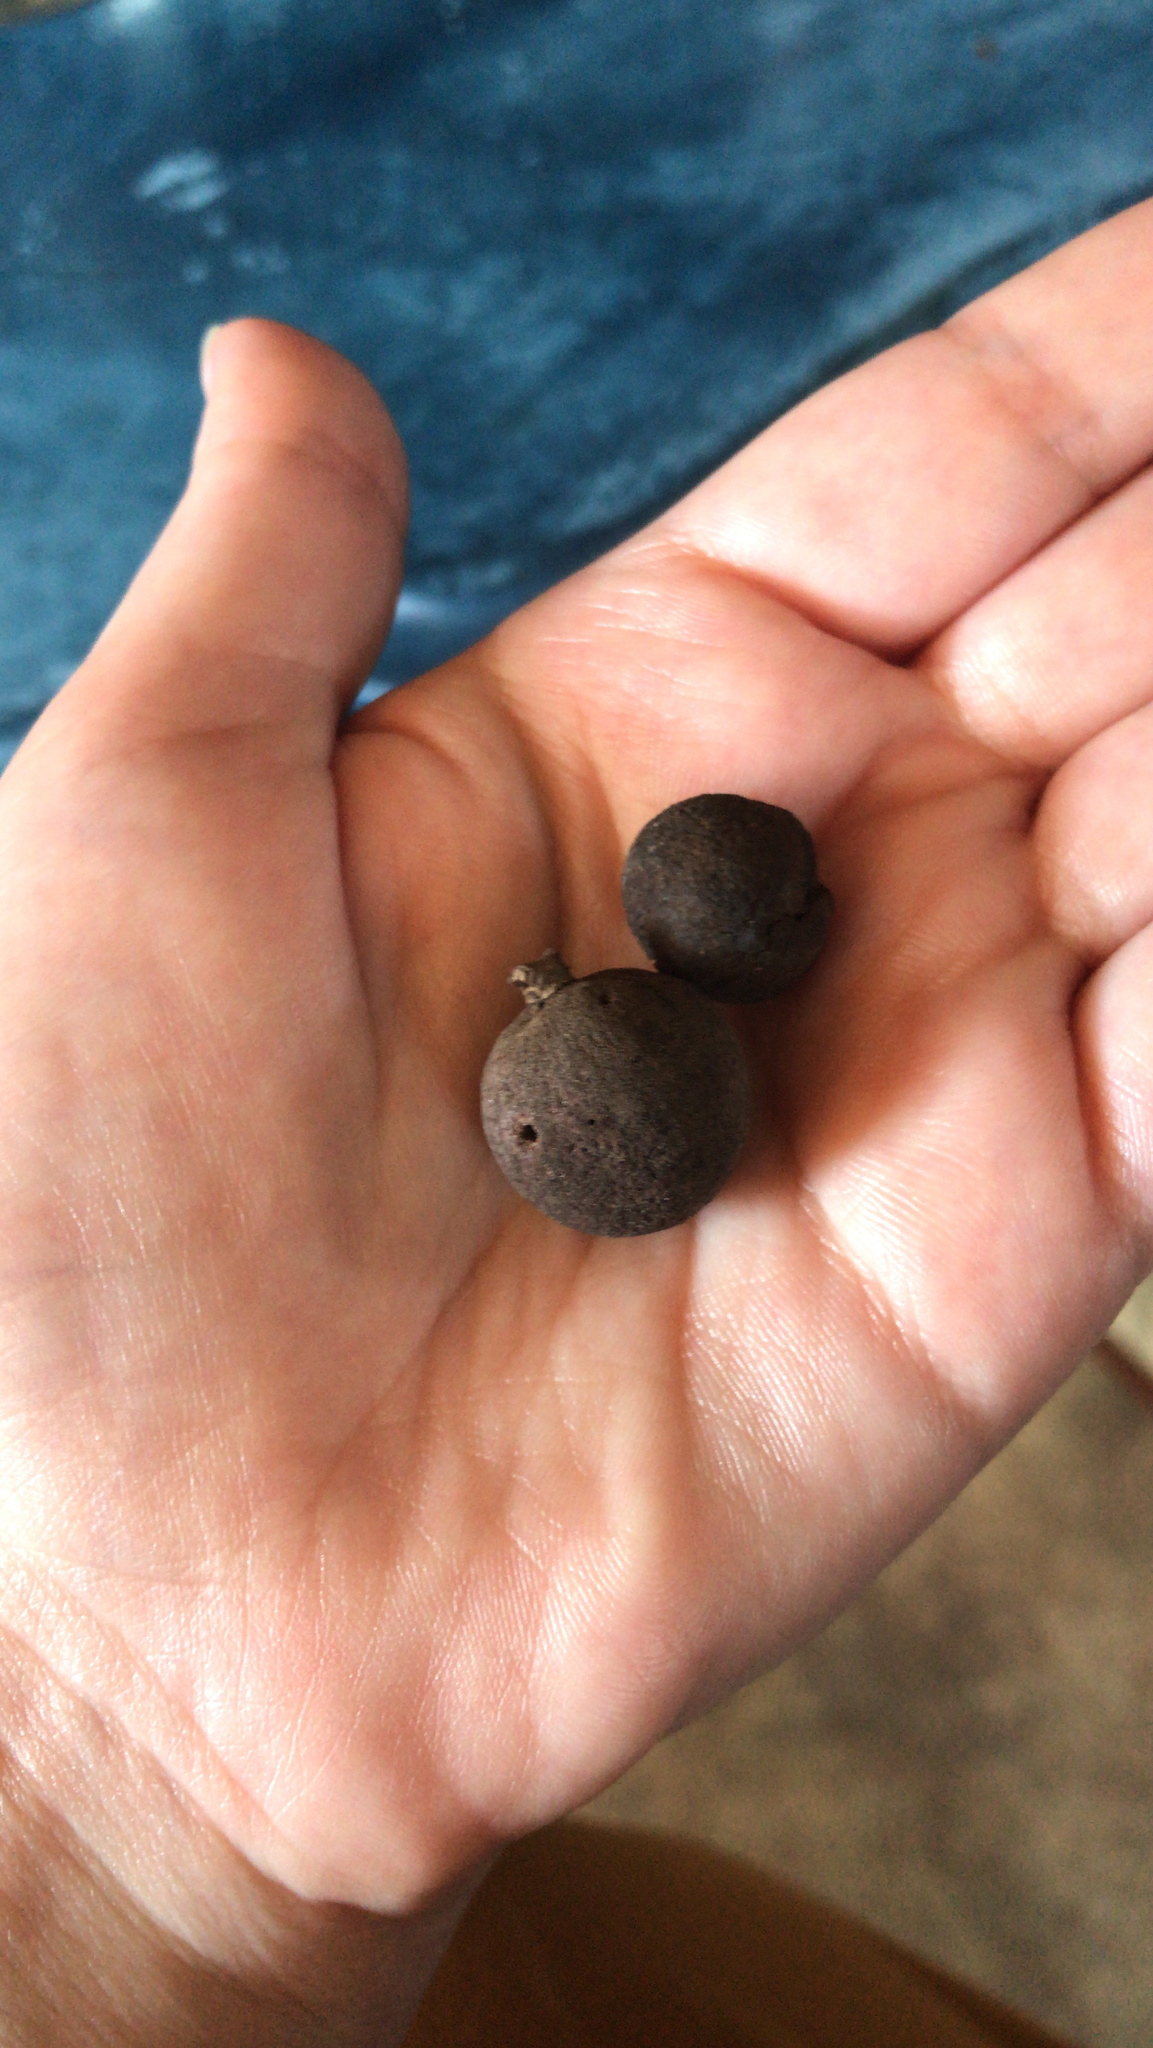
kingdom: Animalia
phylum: Arthropoda
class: Insecta
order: Hymenoptera
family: Cynipidae
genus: Disholcaspis
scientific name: Disholcaspis
